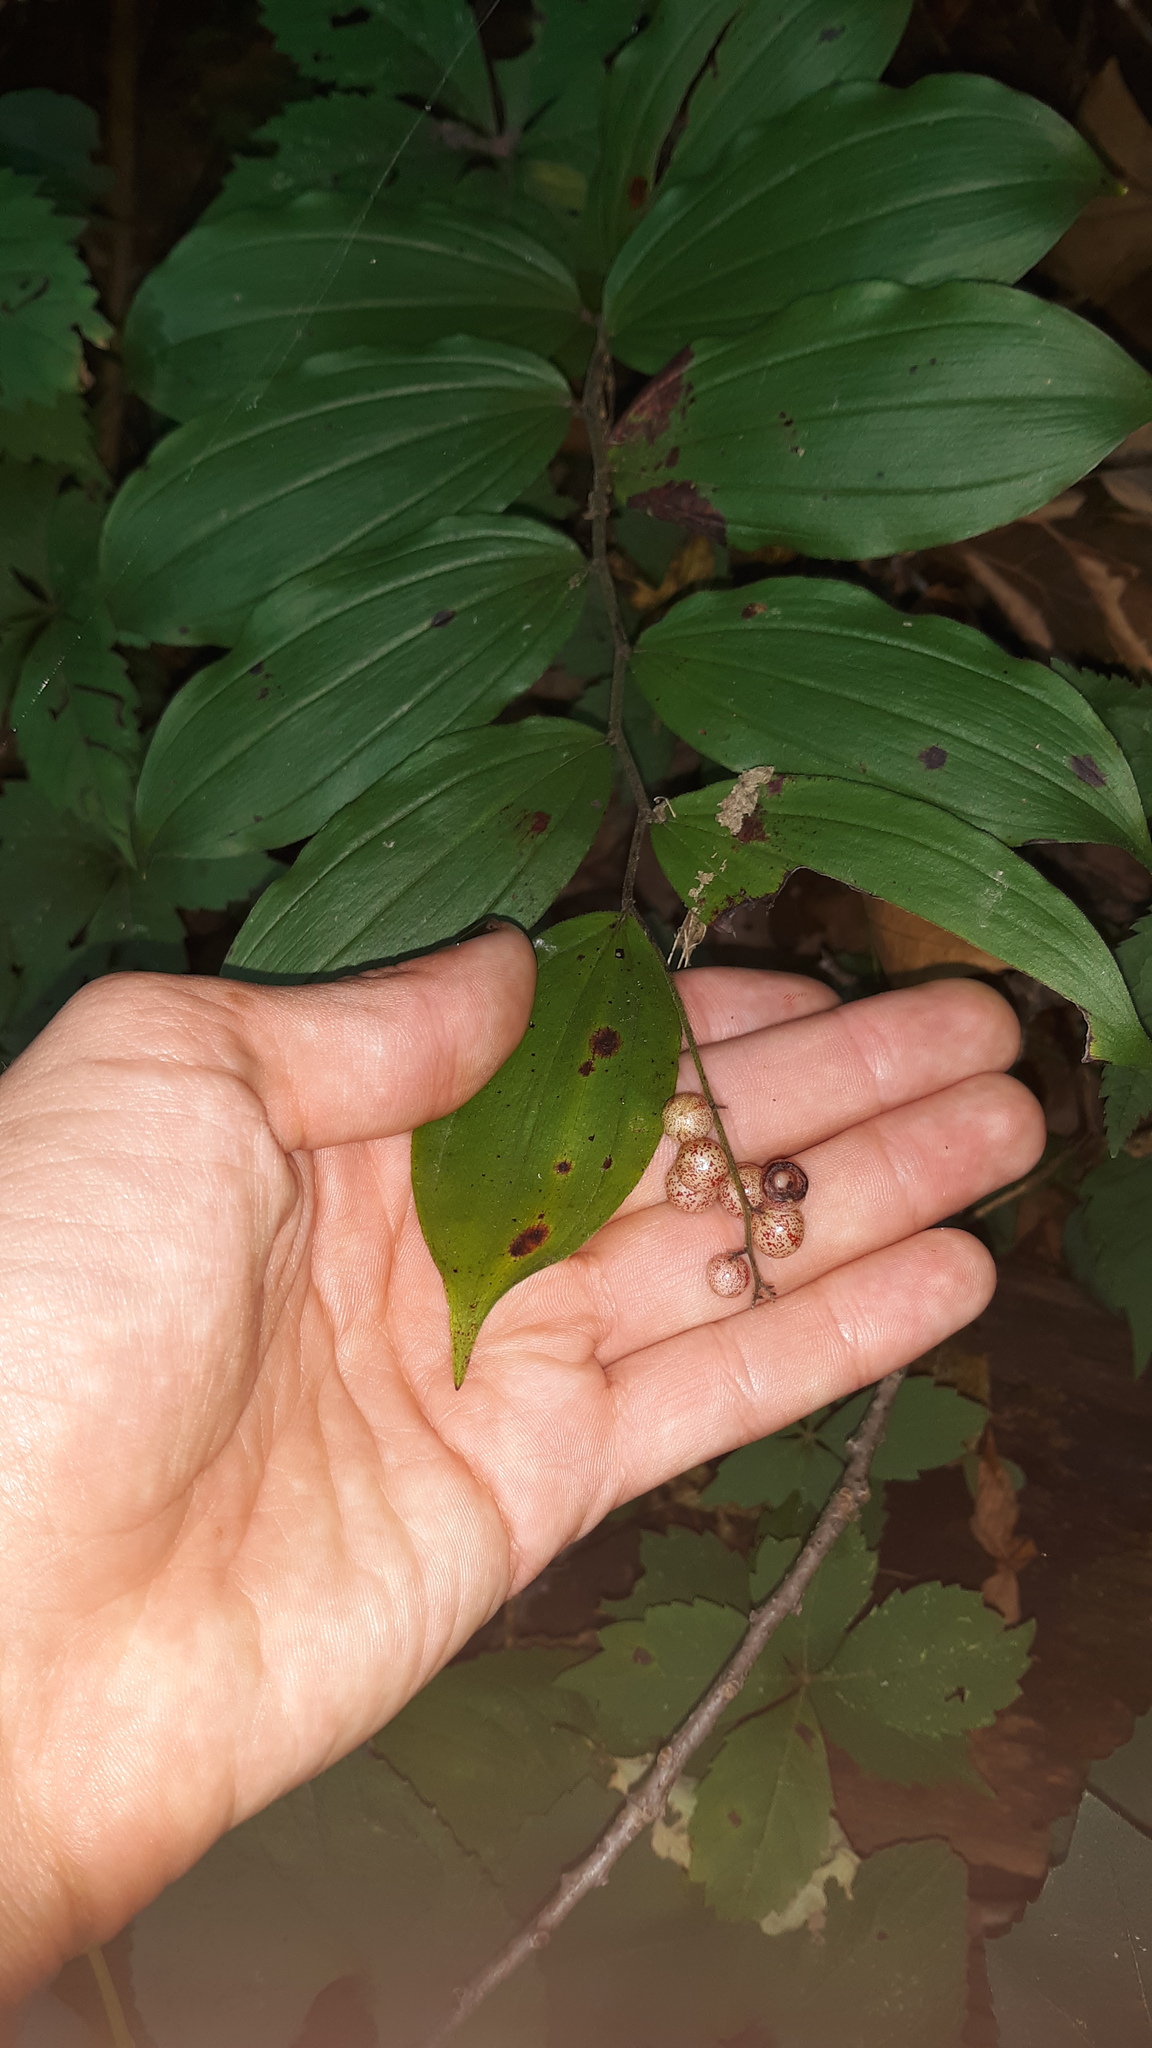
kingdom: Plantae
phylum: Tracheophyta
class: Liliopsida
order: Asparagales
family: Asparagaceae
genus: Maianthemum
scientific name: Maianthemum racemosum
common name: False spikenard
